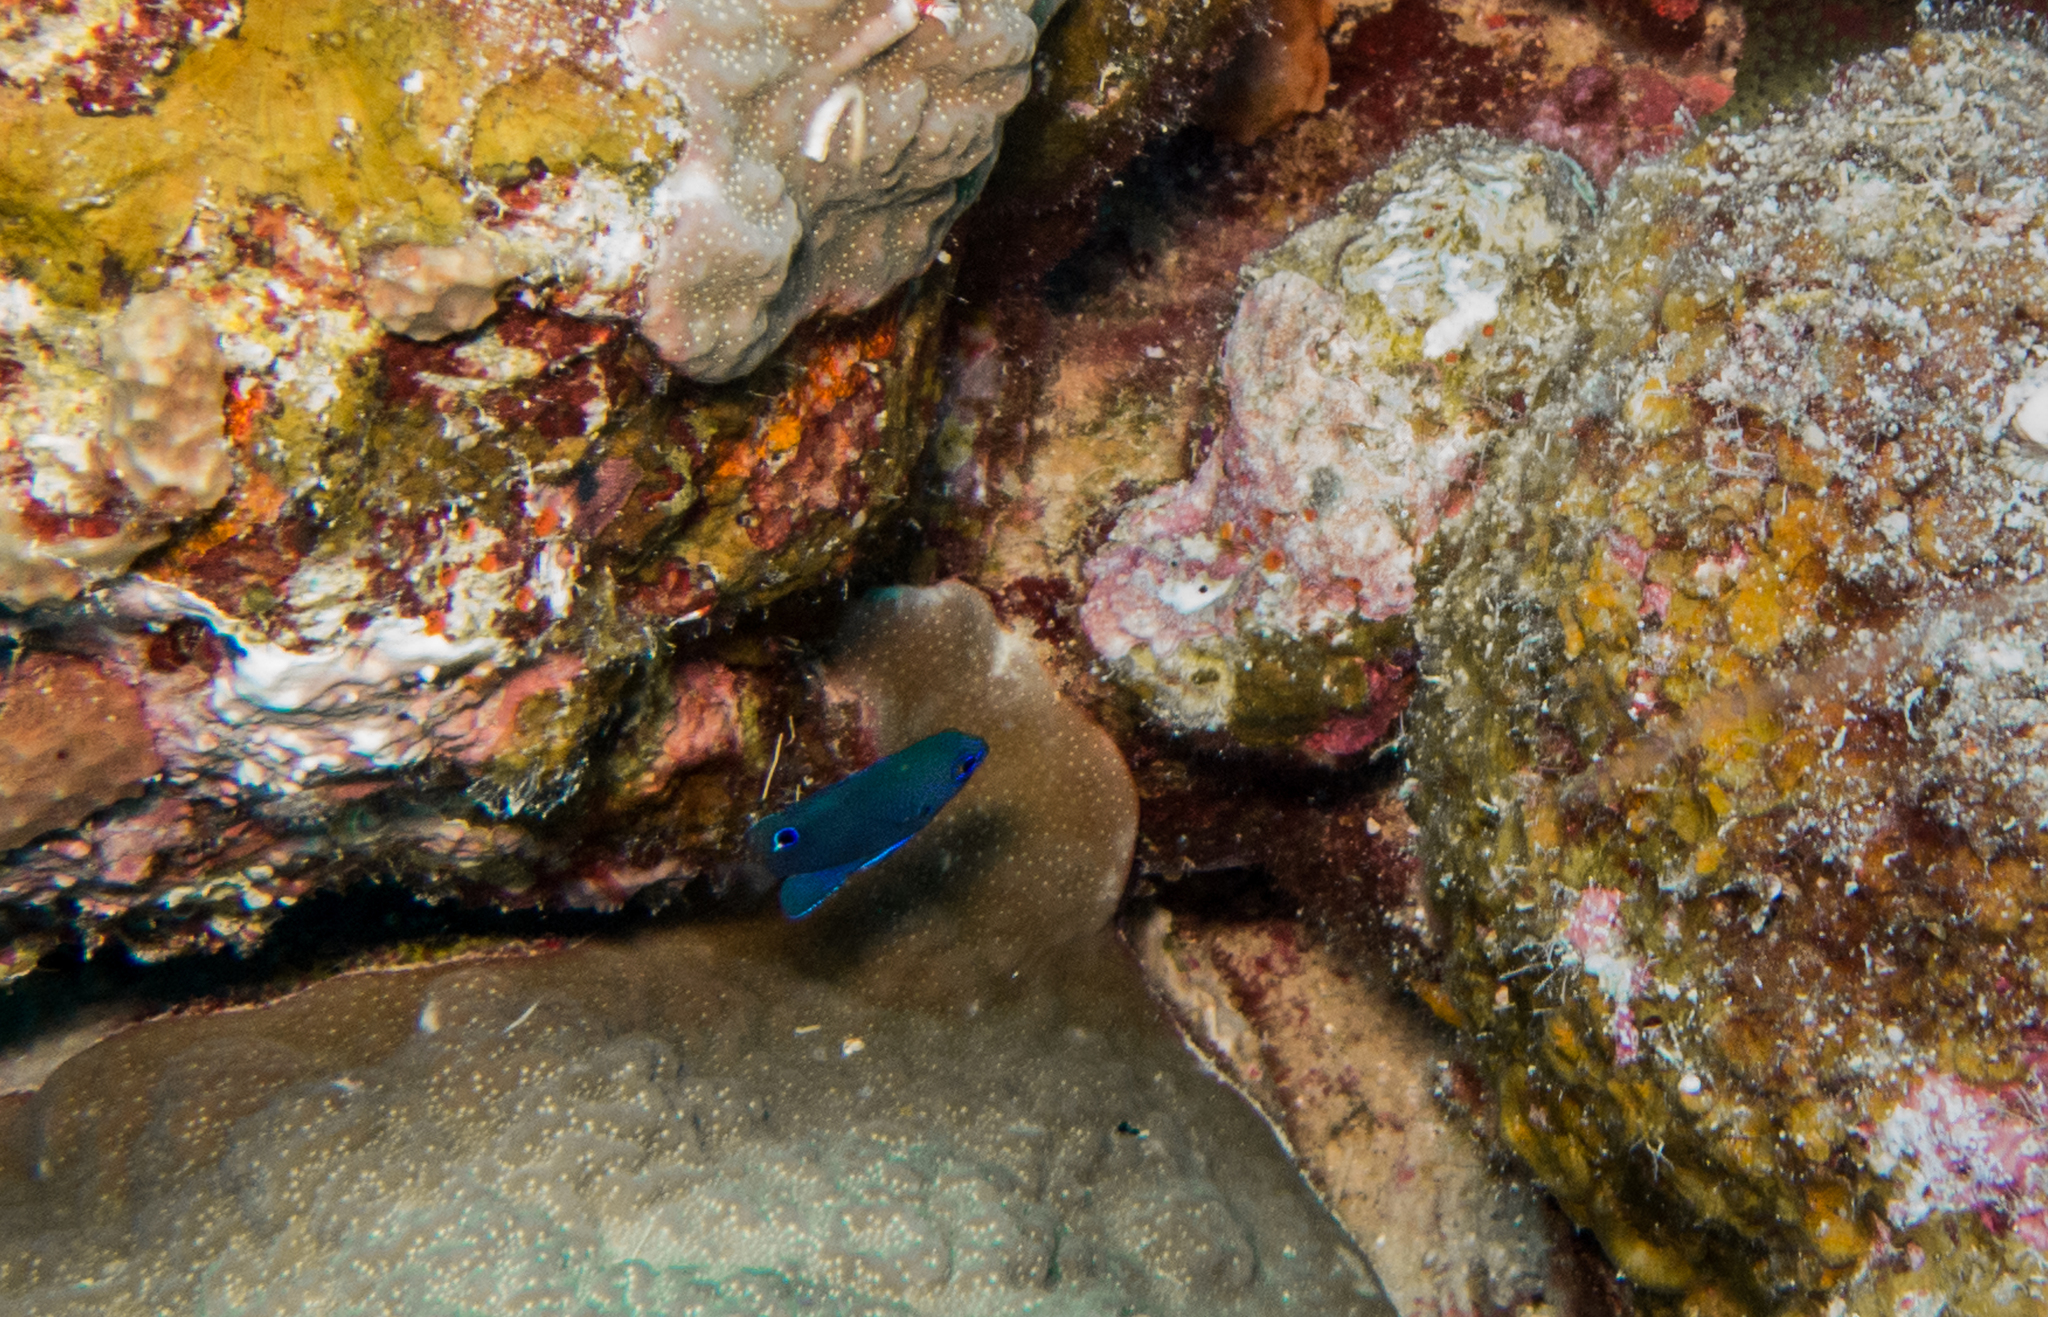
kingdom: Animalia
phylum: Chordata
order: Perciformes
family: Pomacentridae
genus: Pomacentrus
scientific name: Pomacentrus nagasakiensis
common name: Nagasaki damsel
